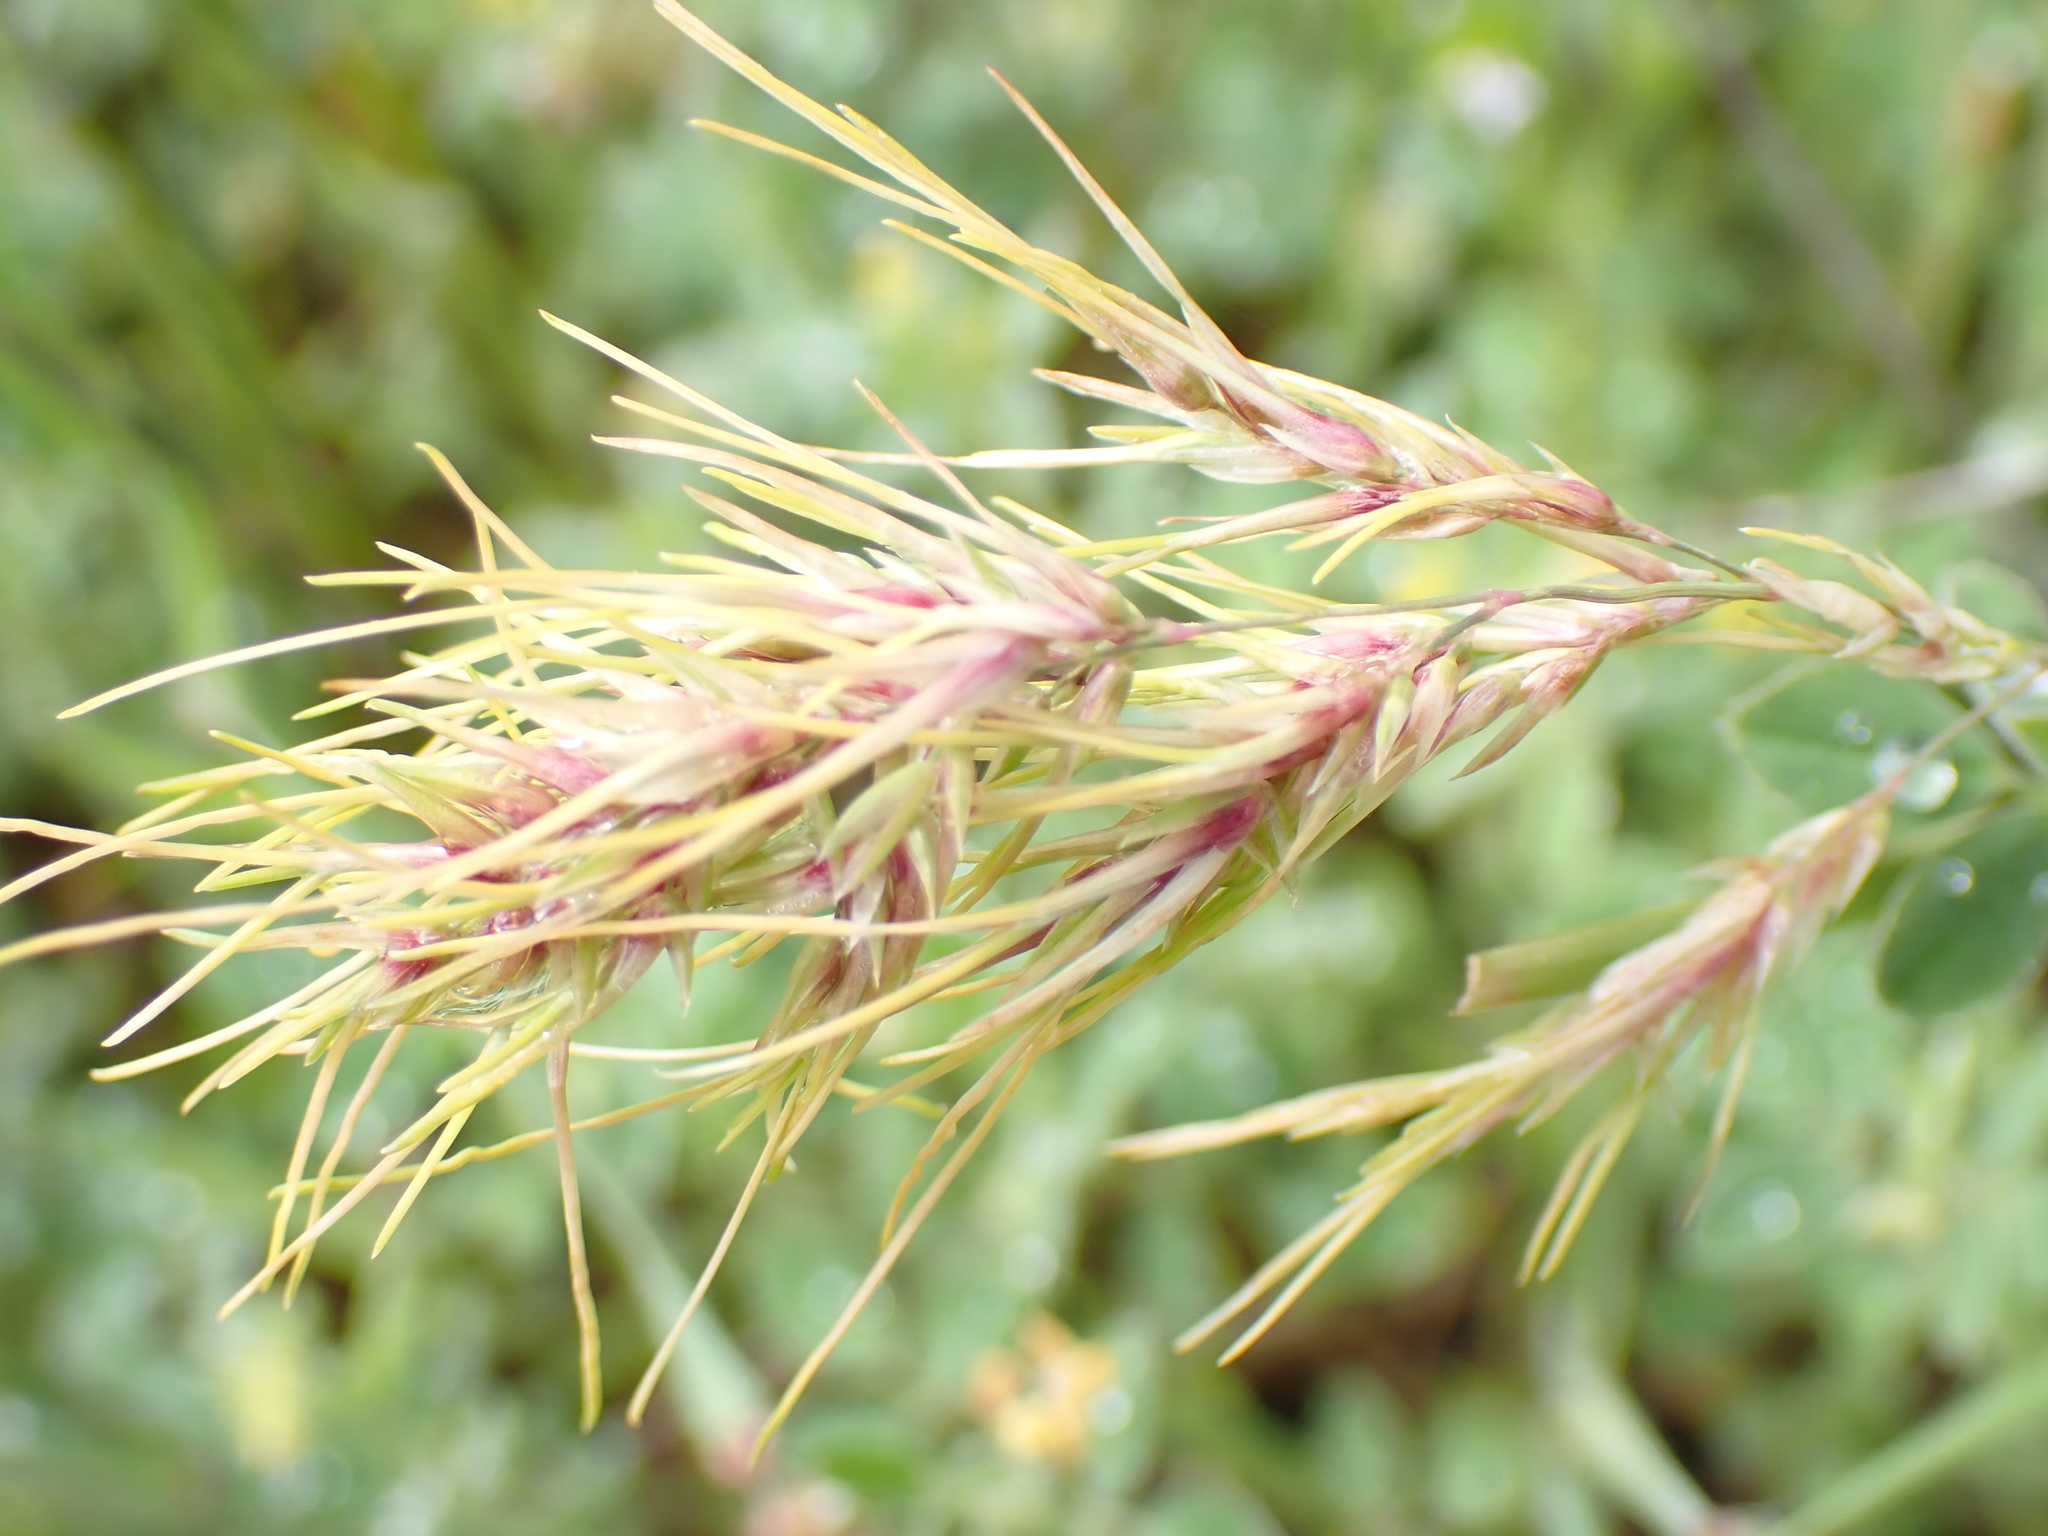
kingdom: Plantae
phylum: Tracheophyta
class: Liliopsida
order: Poales
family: Poaceae
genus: Poa
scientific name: Poa bulbosa
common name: Bulbous bluegrass
